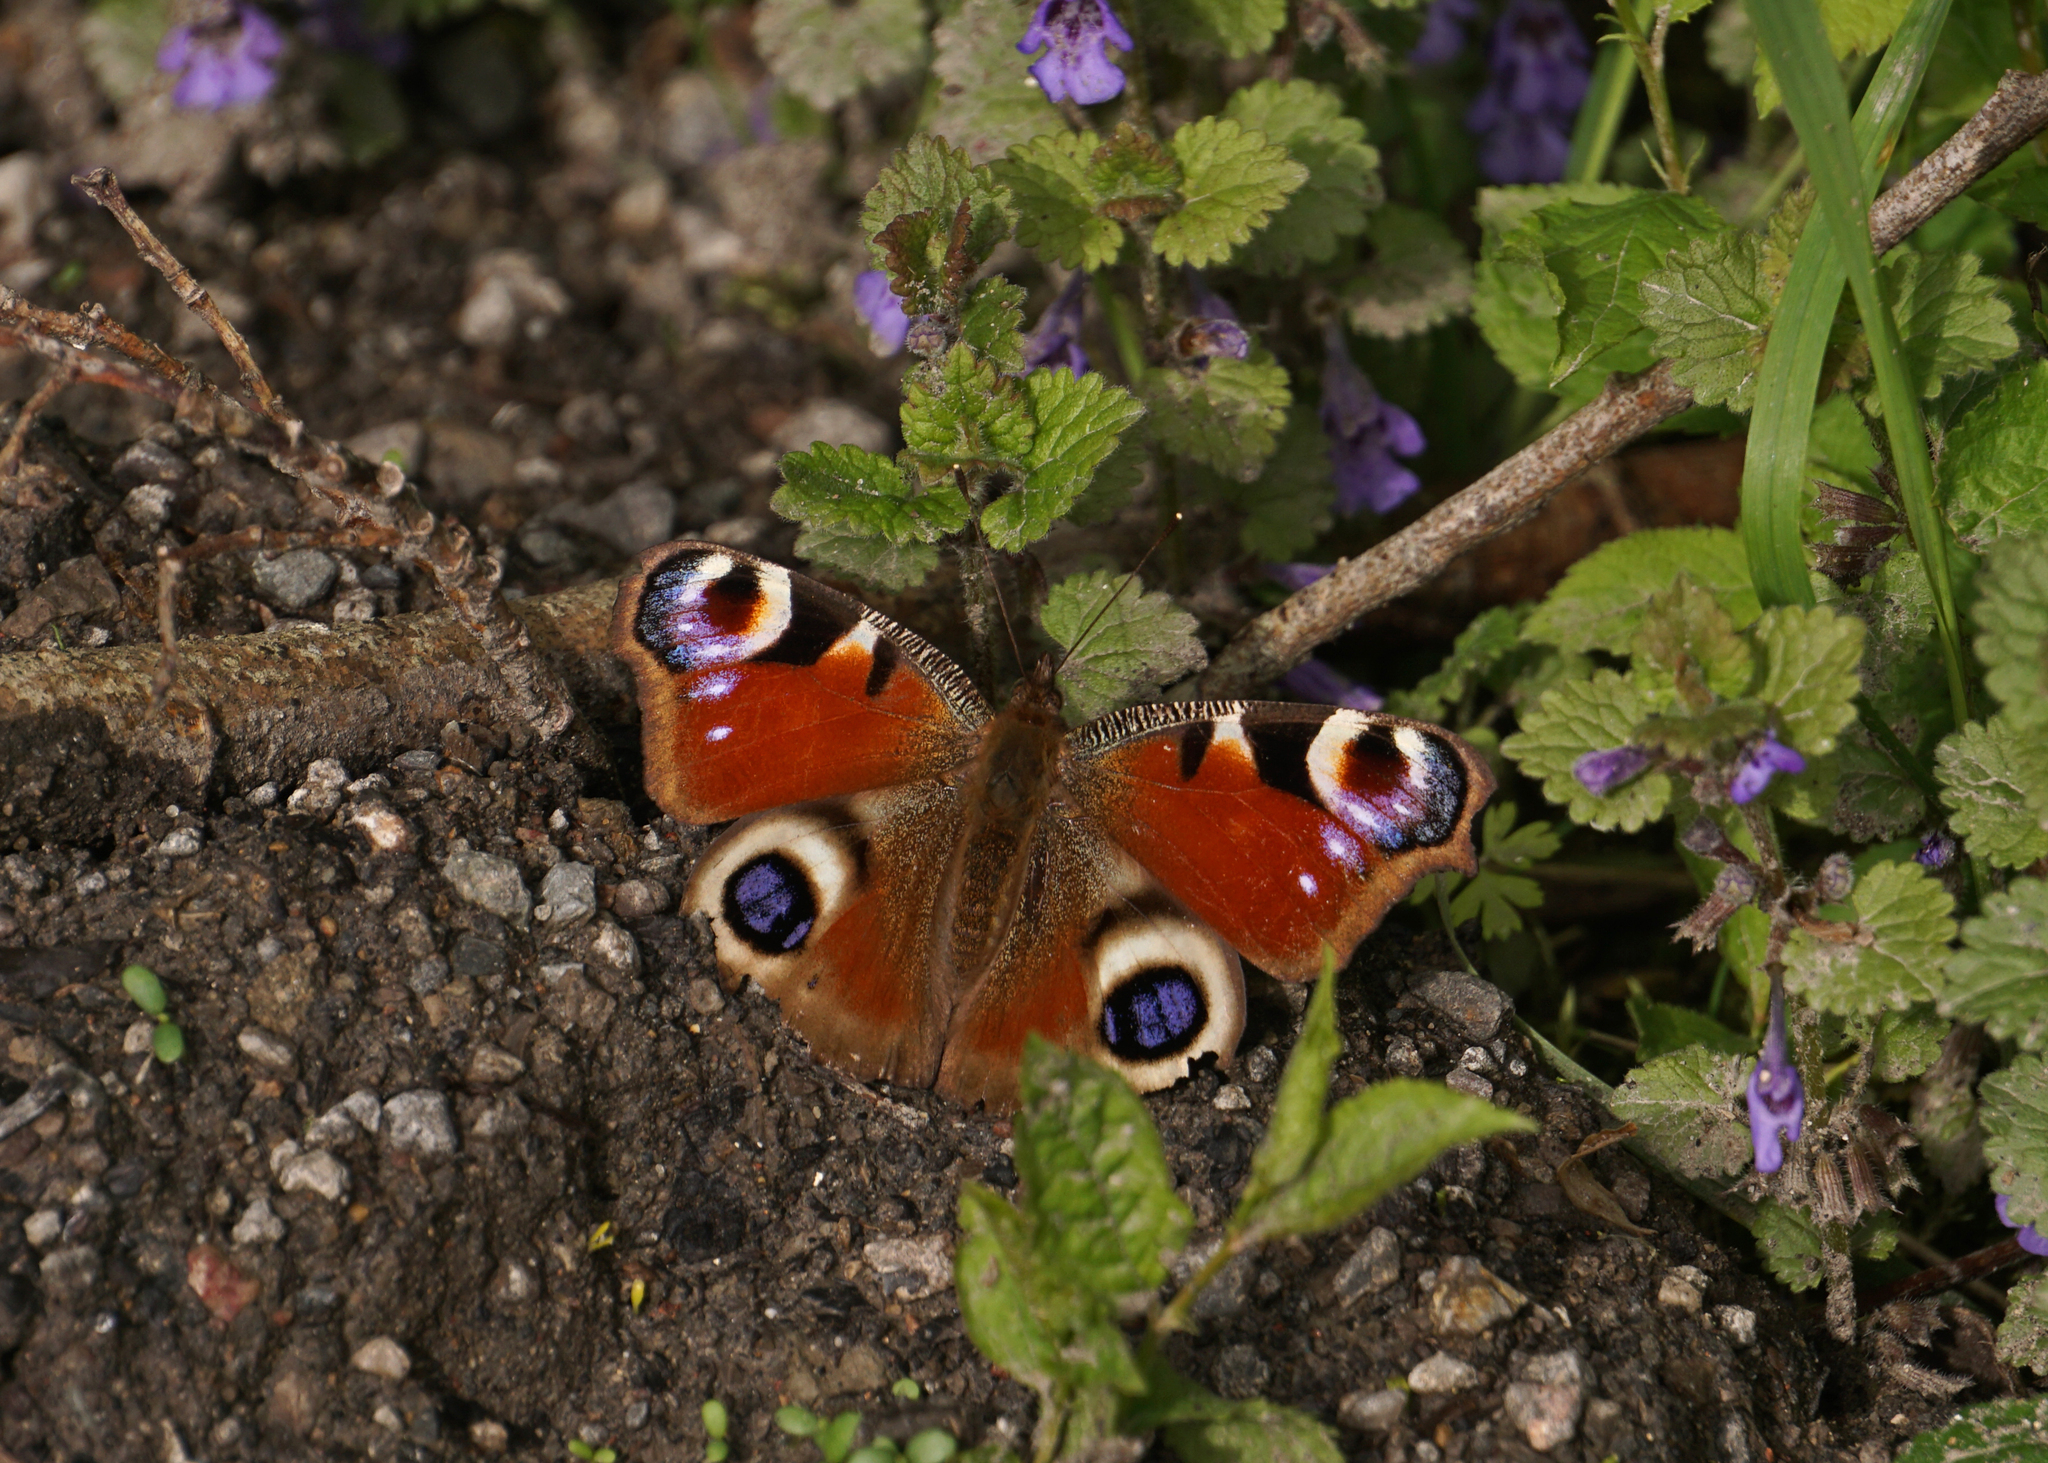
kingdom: Animalia
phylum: Arthropoda
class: Insecta
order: Lepidoptera
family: Nymphalidae
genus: Aglais
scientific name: Aglais io
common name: Peacock
